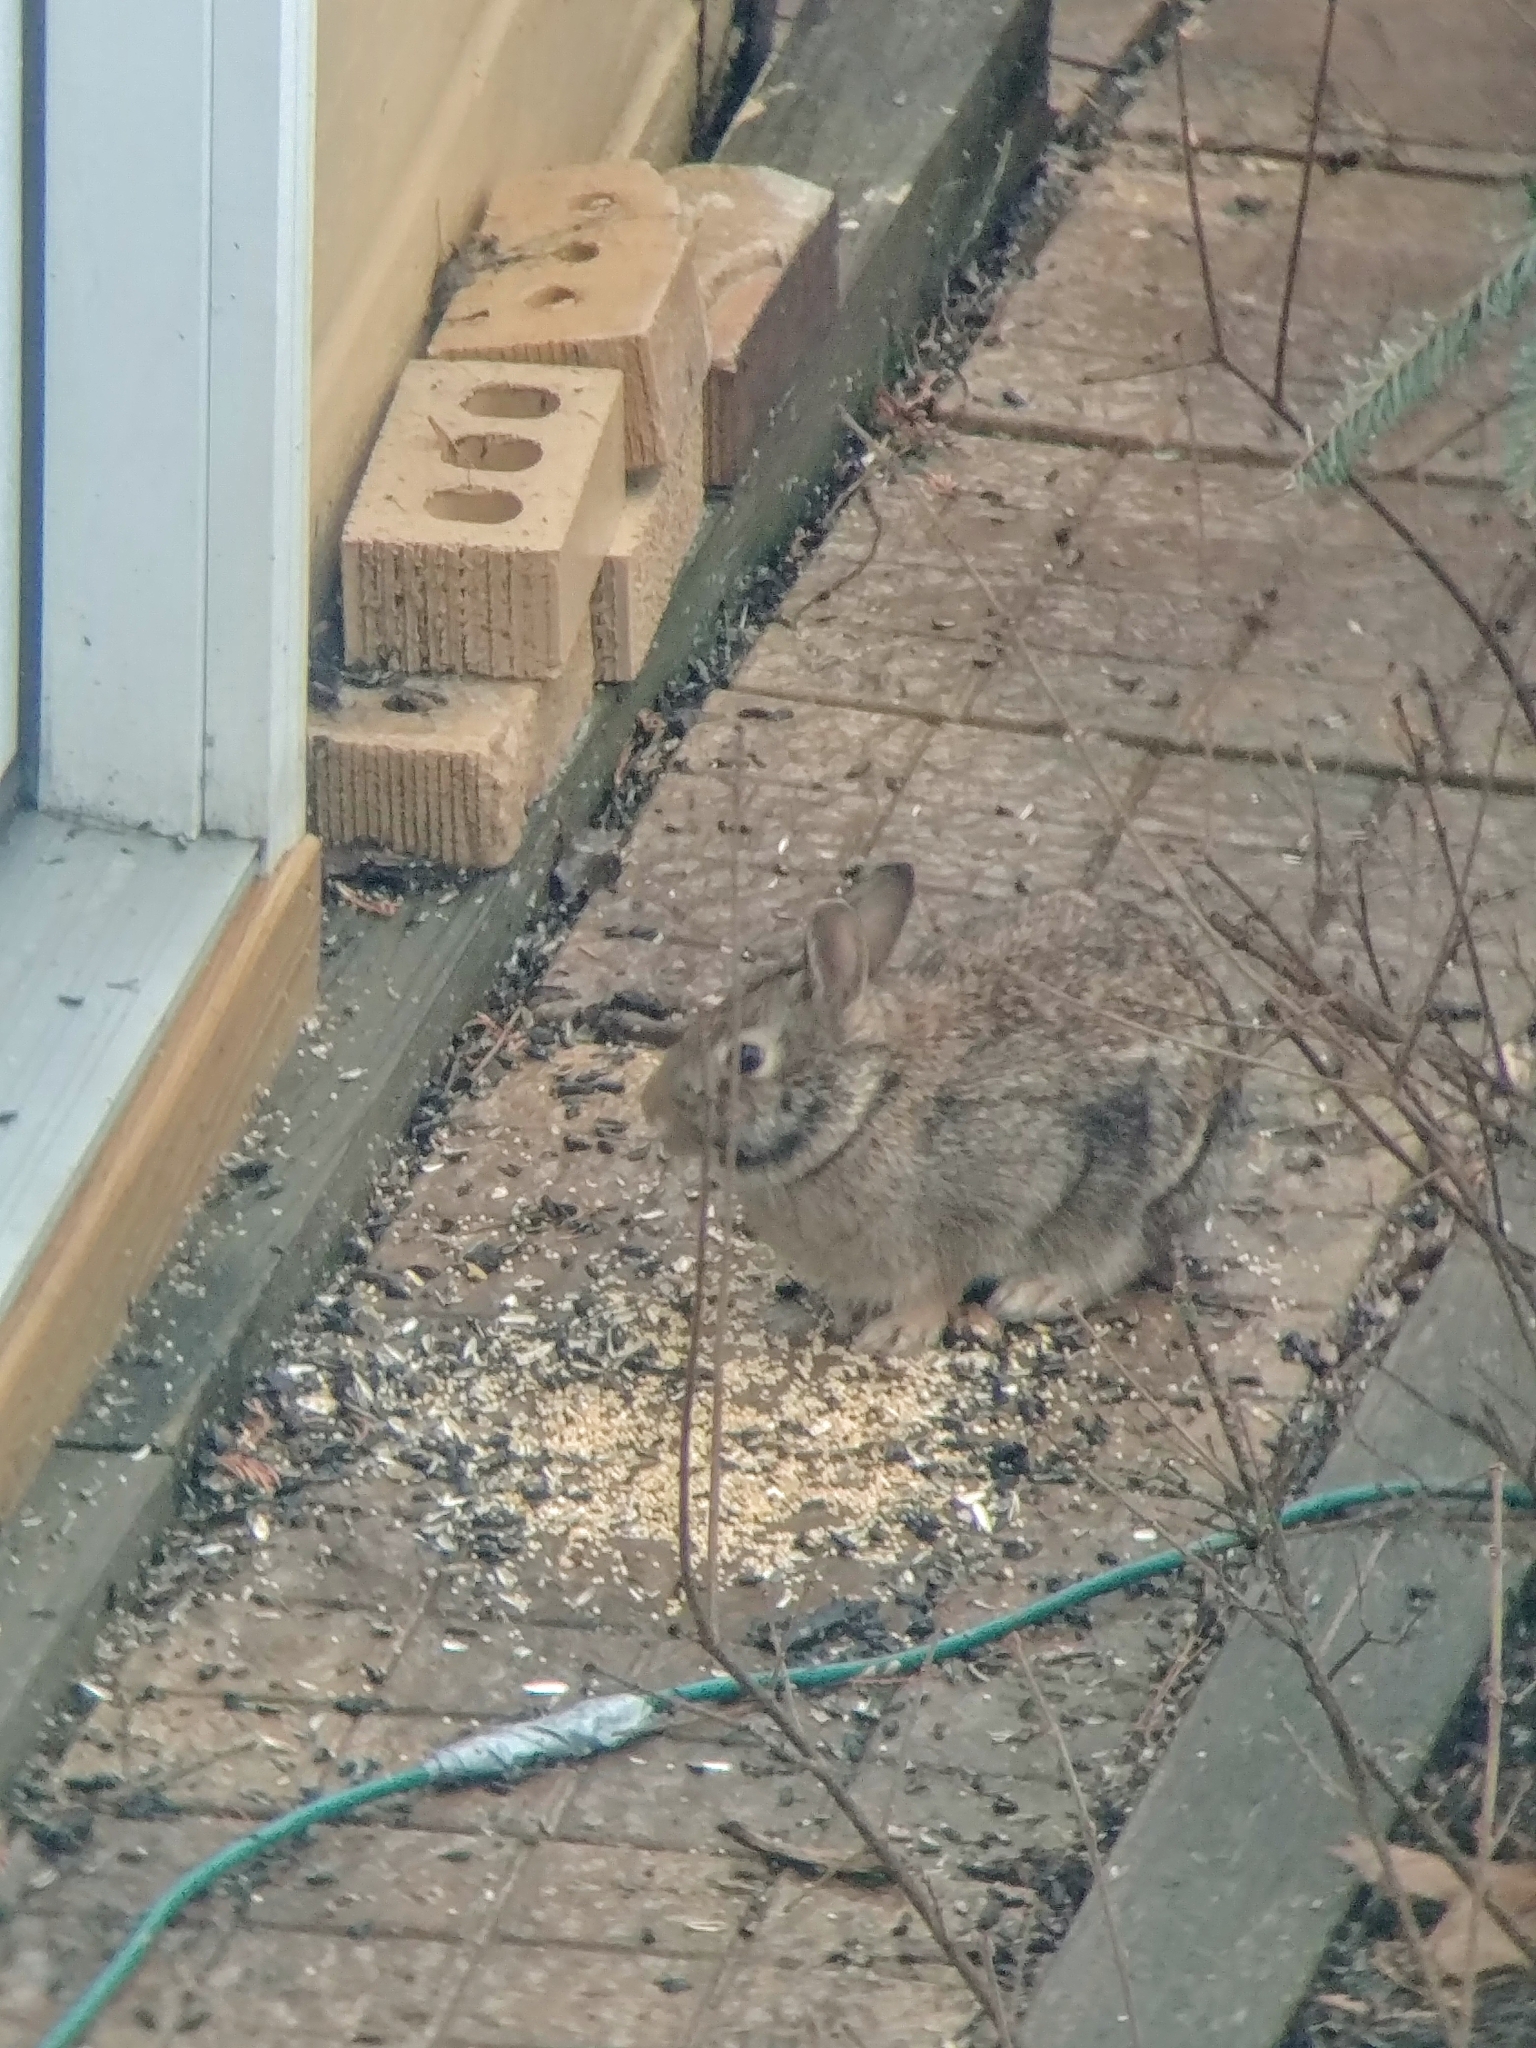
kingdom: Animalia
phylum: Chordata
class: Mammalia
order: Lagomorpha
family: Leporidae
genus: Sylvilagus
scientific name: Sylvilagus floridanus
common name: Eastern cottontail
